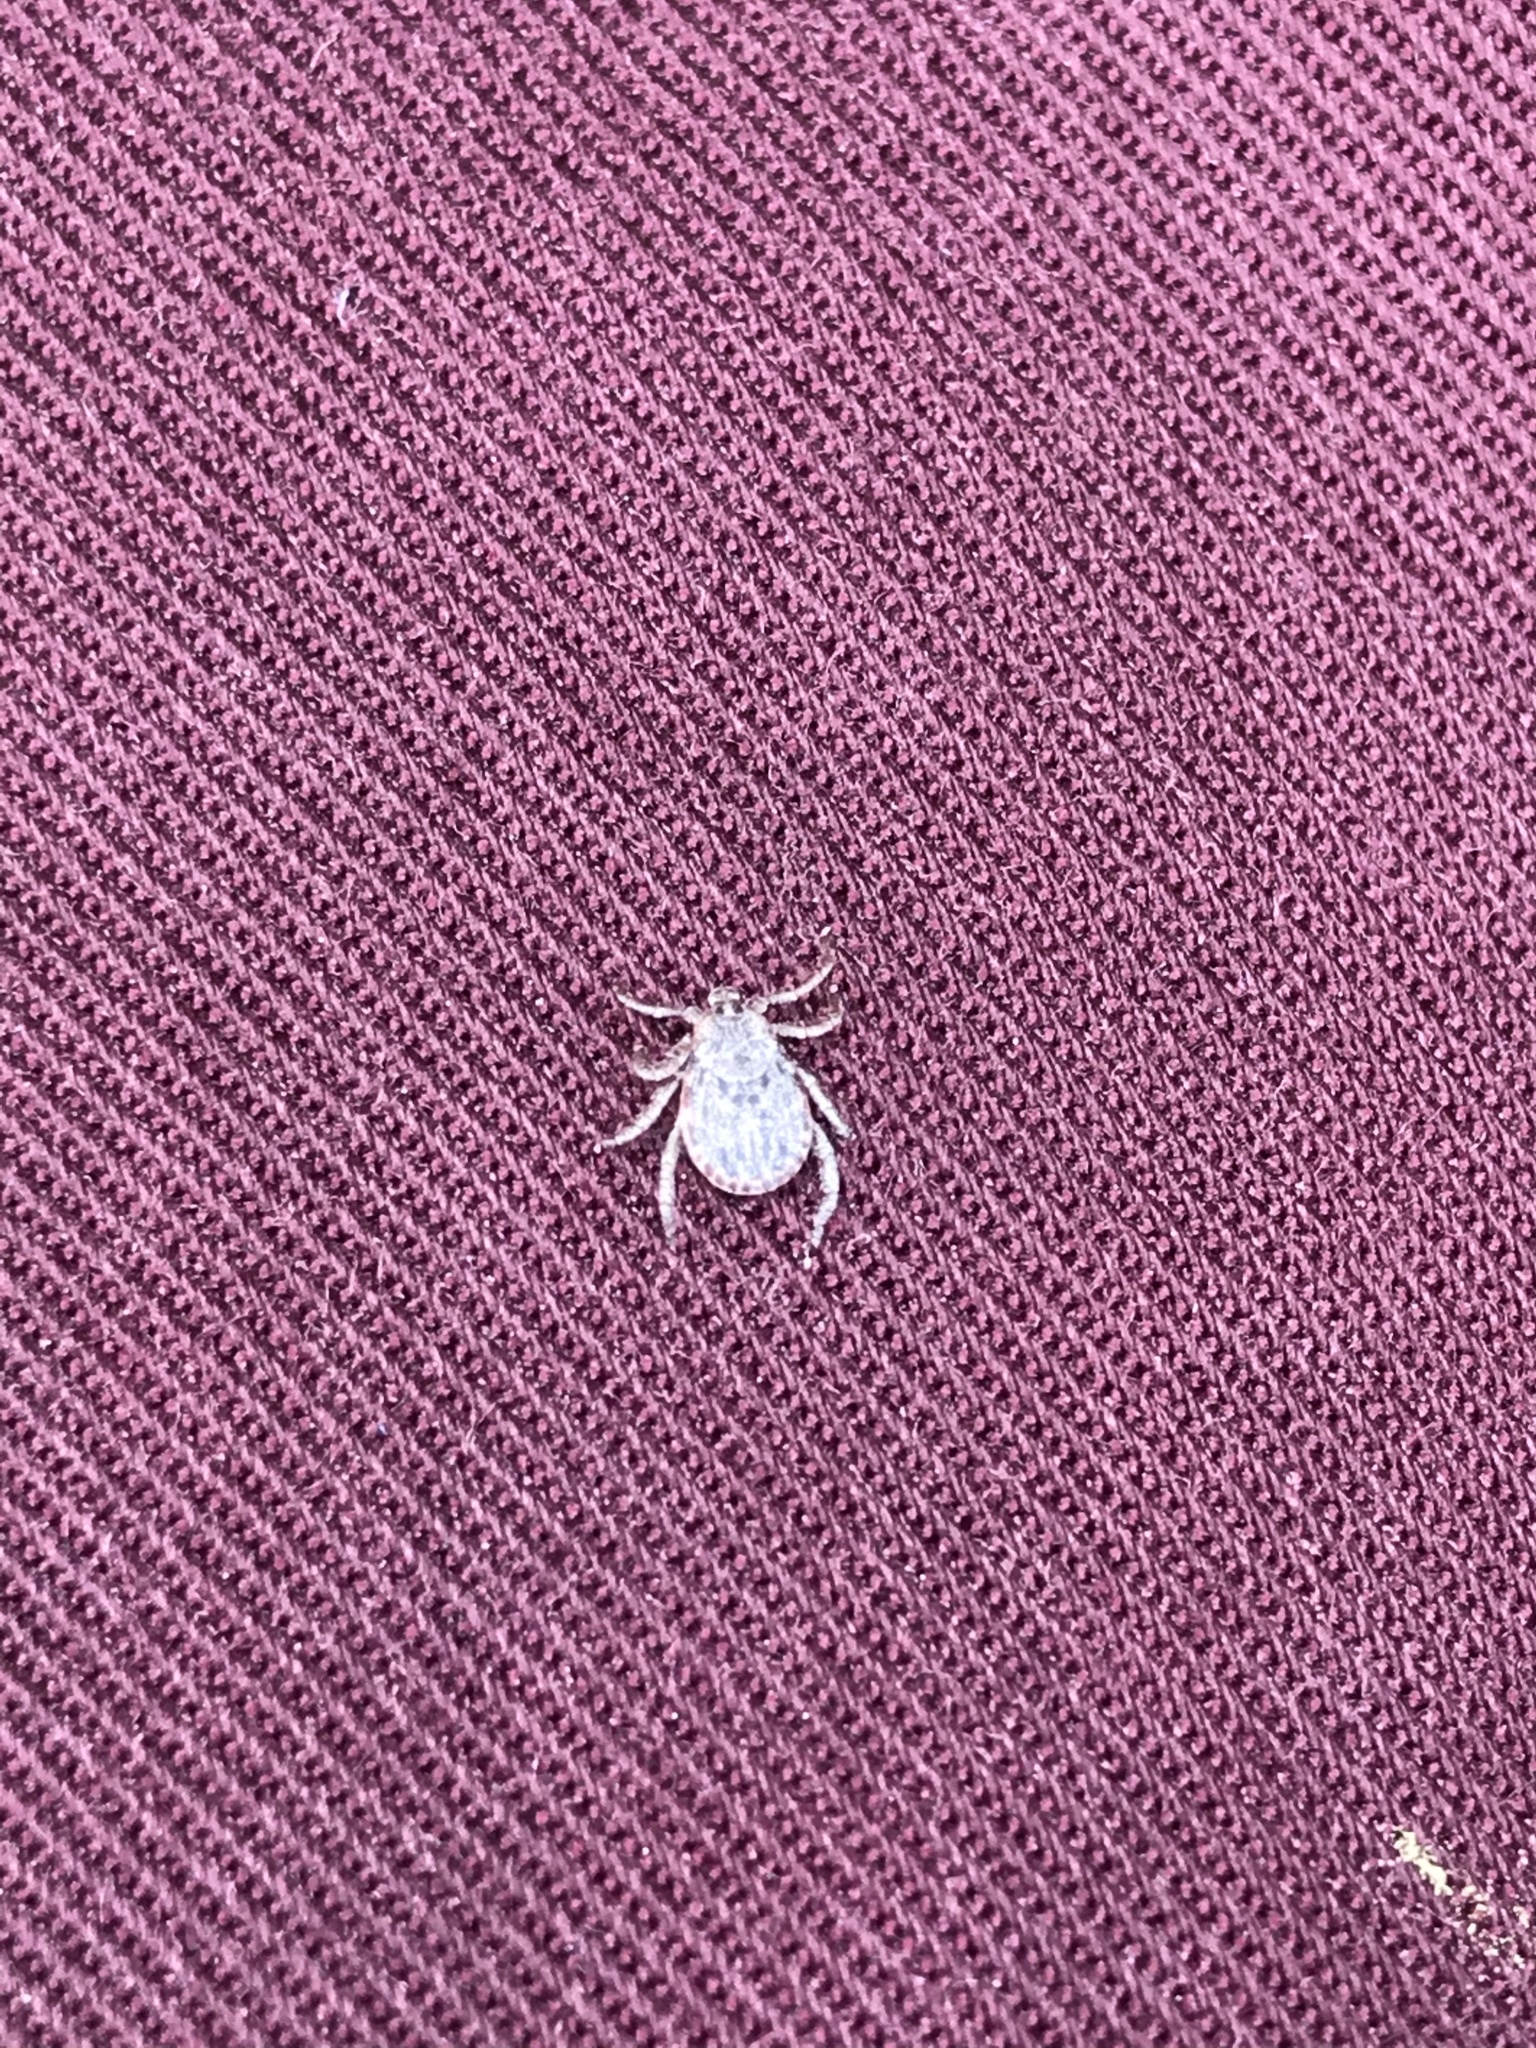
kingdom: Animalia
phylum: Arthropoda
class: Arachnida
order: Ixodida
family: Ixodidae
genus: Dermacentor
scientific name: Dermacentor occidentalis
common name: Net tick
